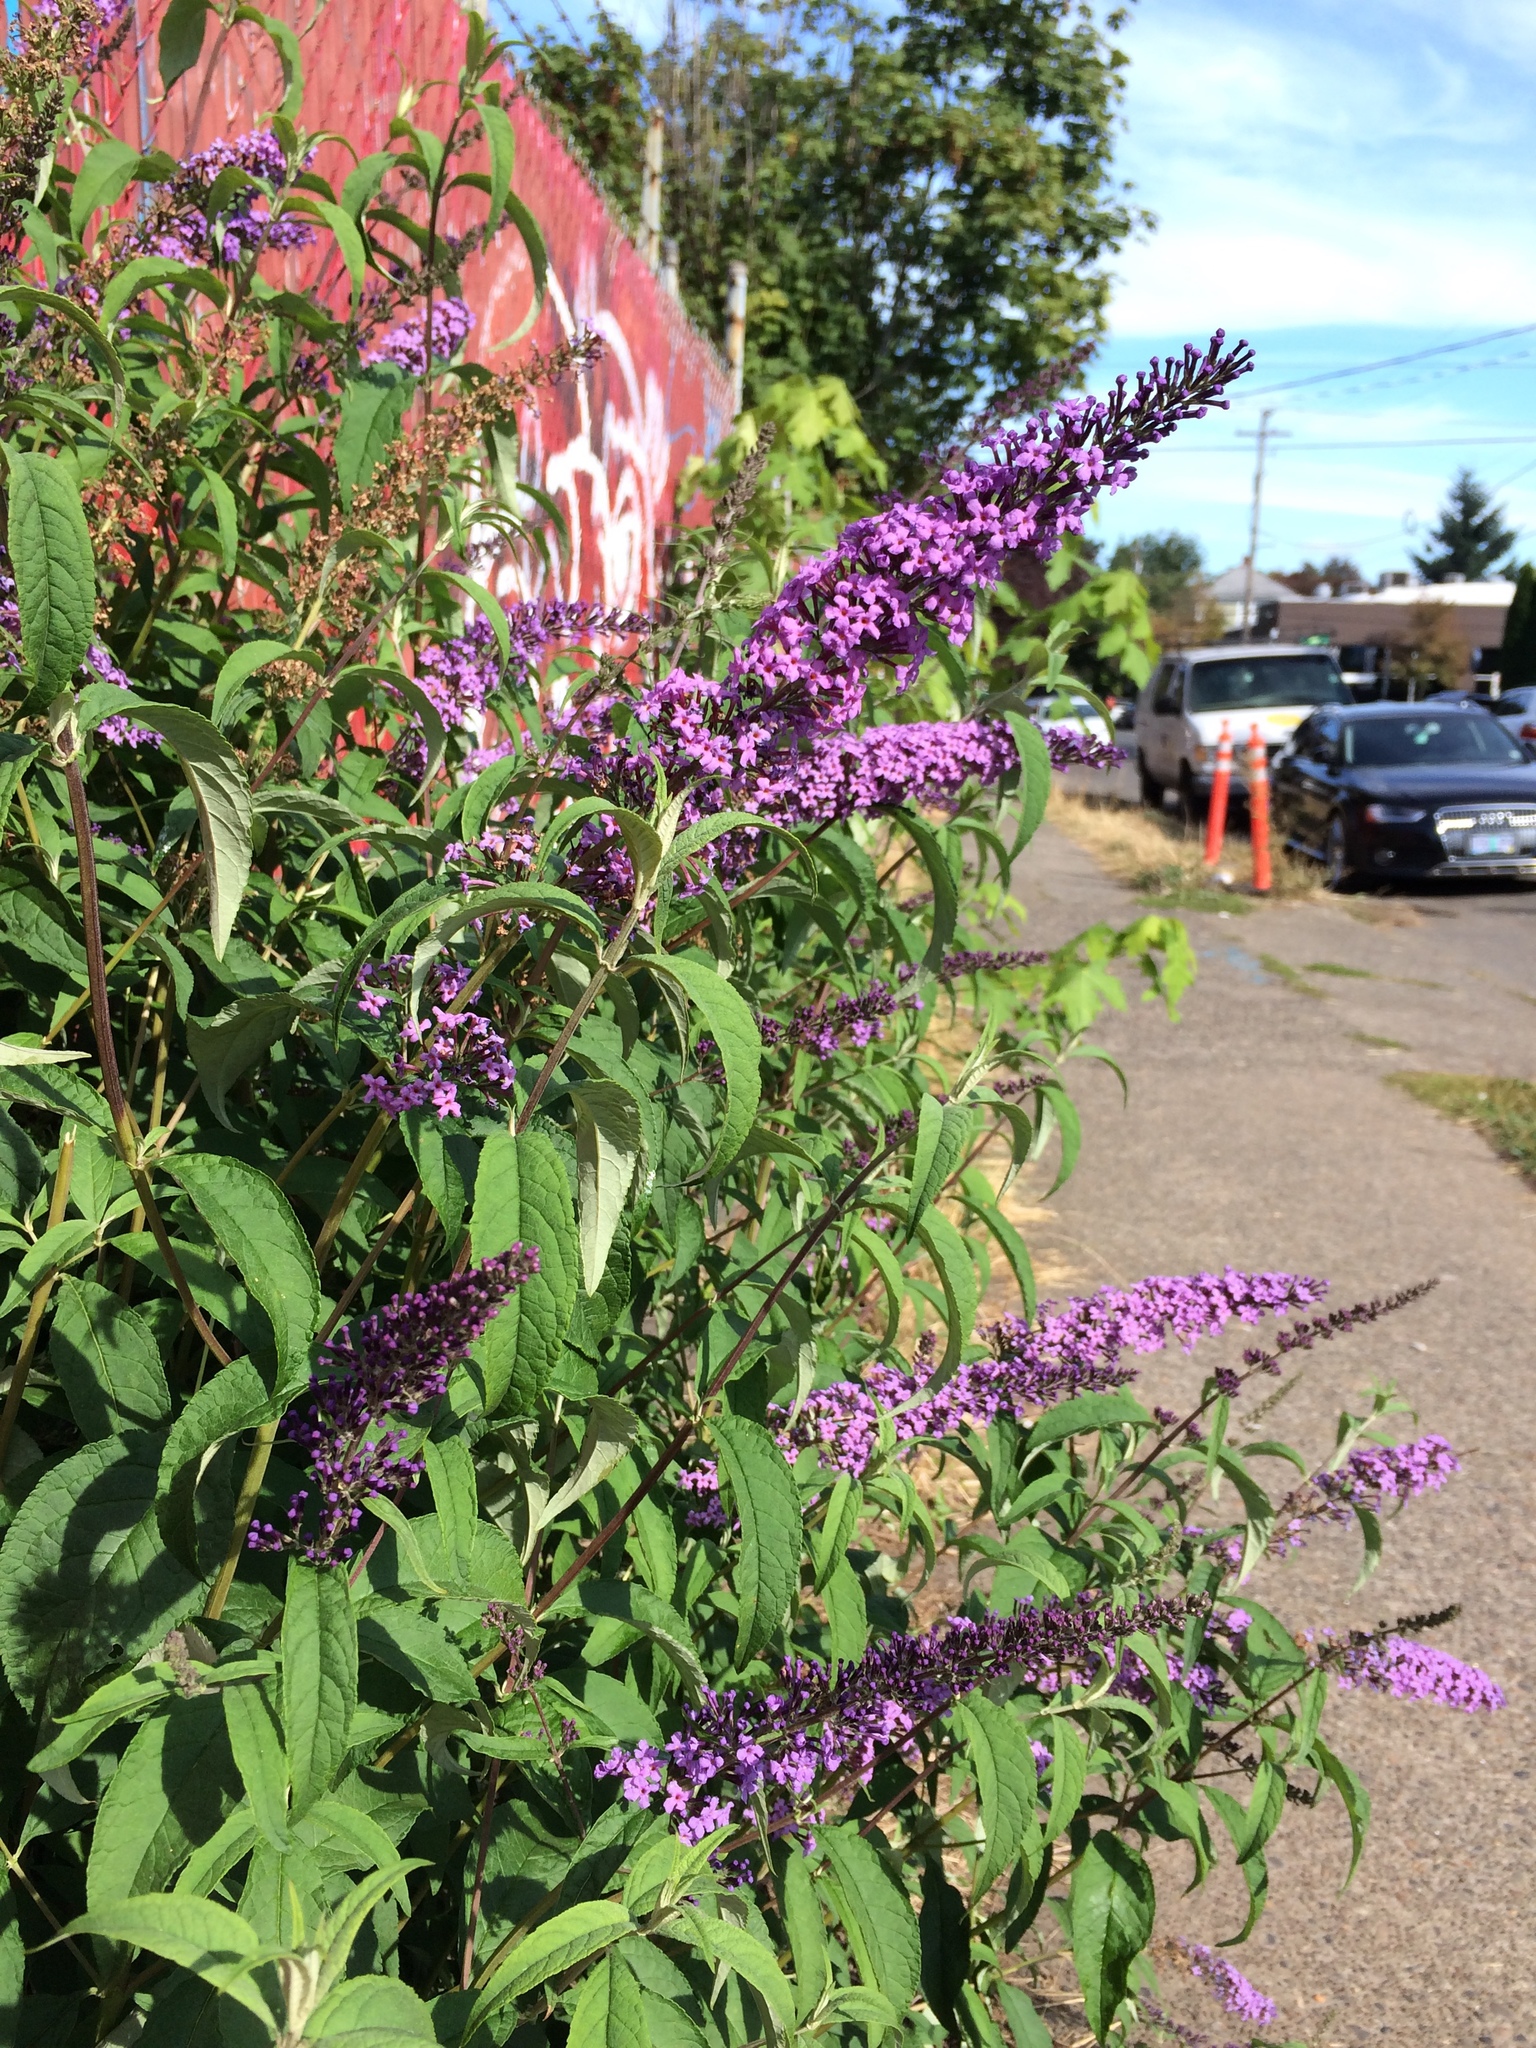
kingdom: Plantae
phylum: Tracheophyta
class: Magnoliopsida
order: Lamiales
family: Scrophulariaceae
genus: Buddleja
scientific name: Buddleja davidii
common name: Butterfly-bush
